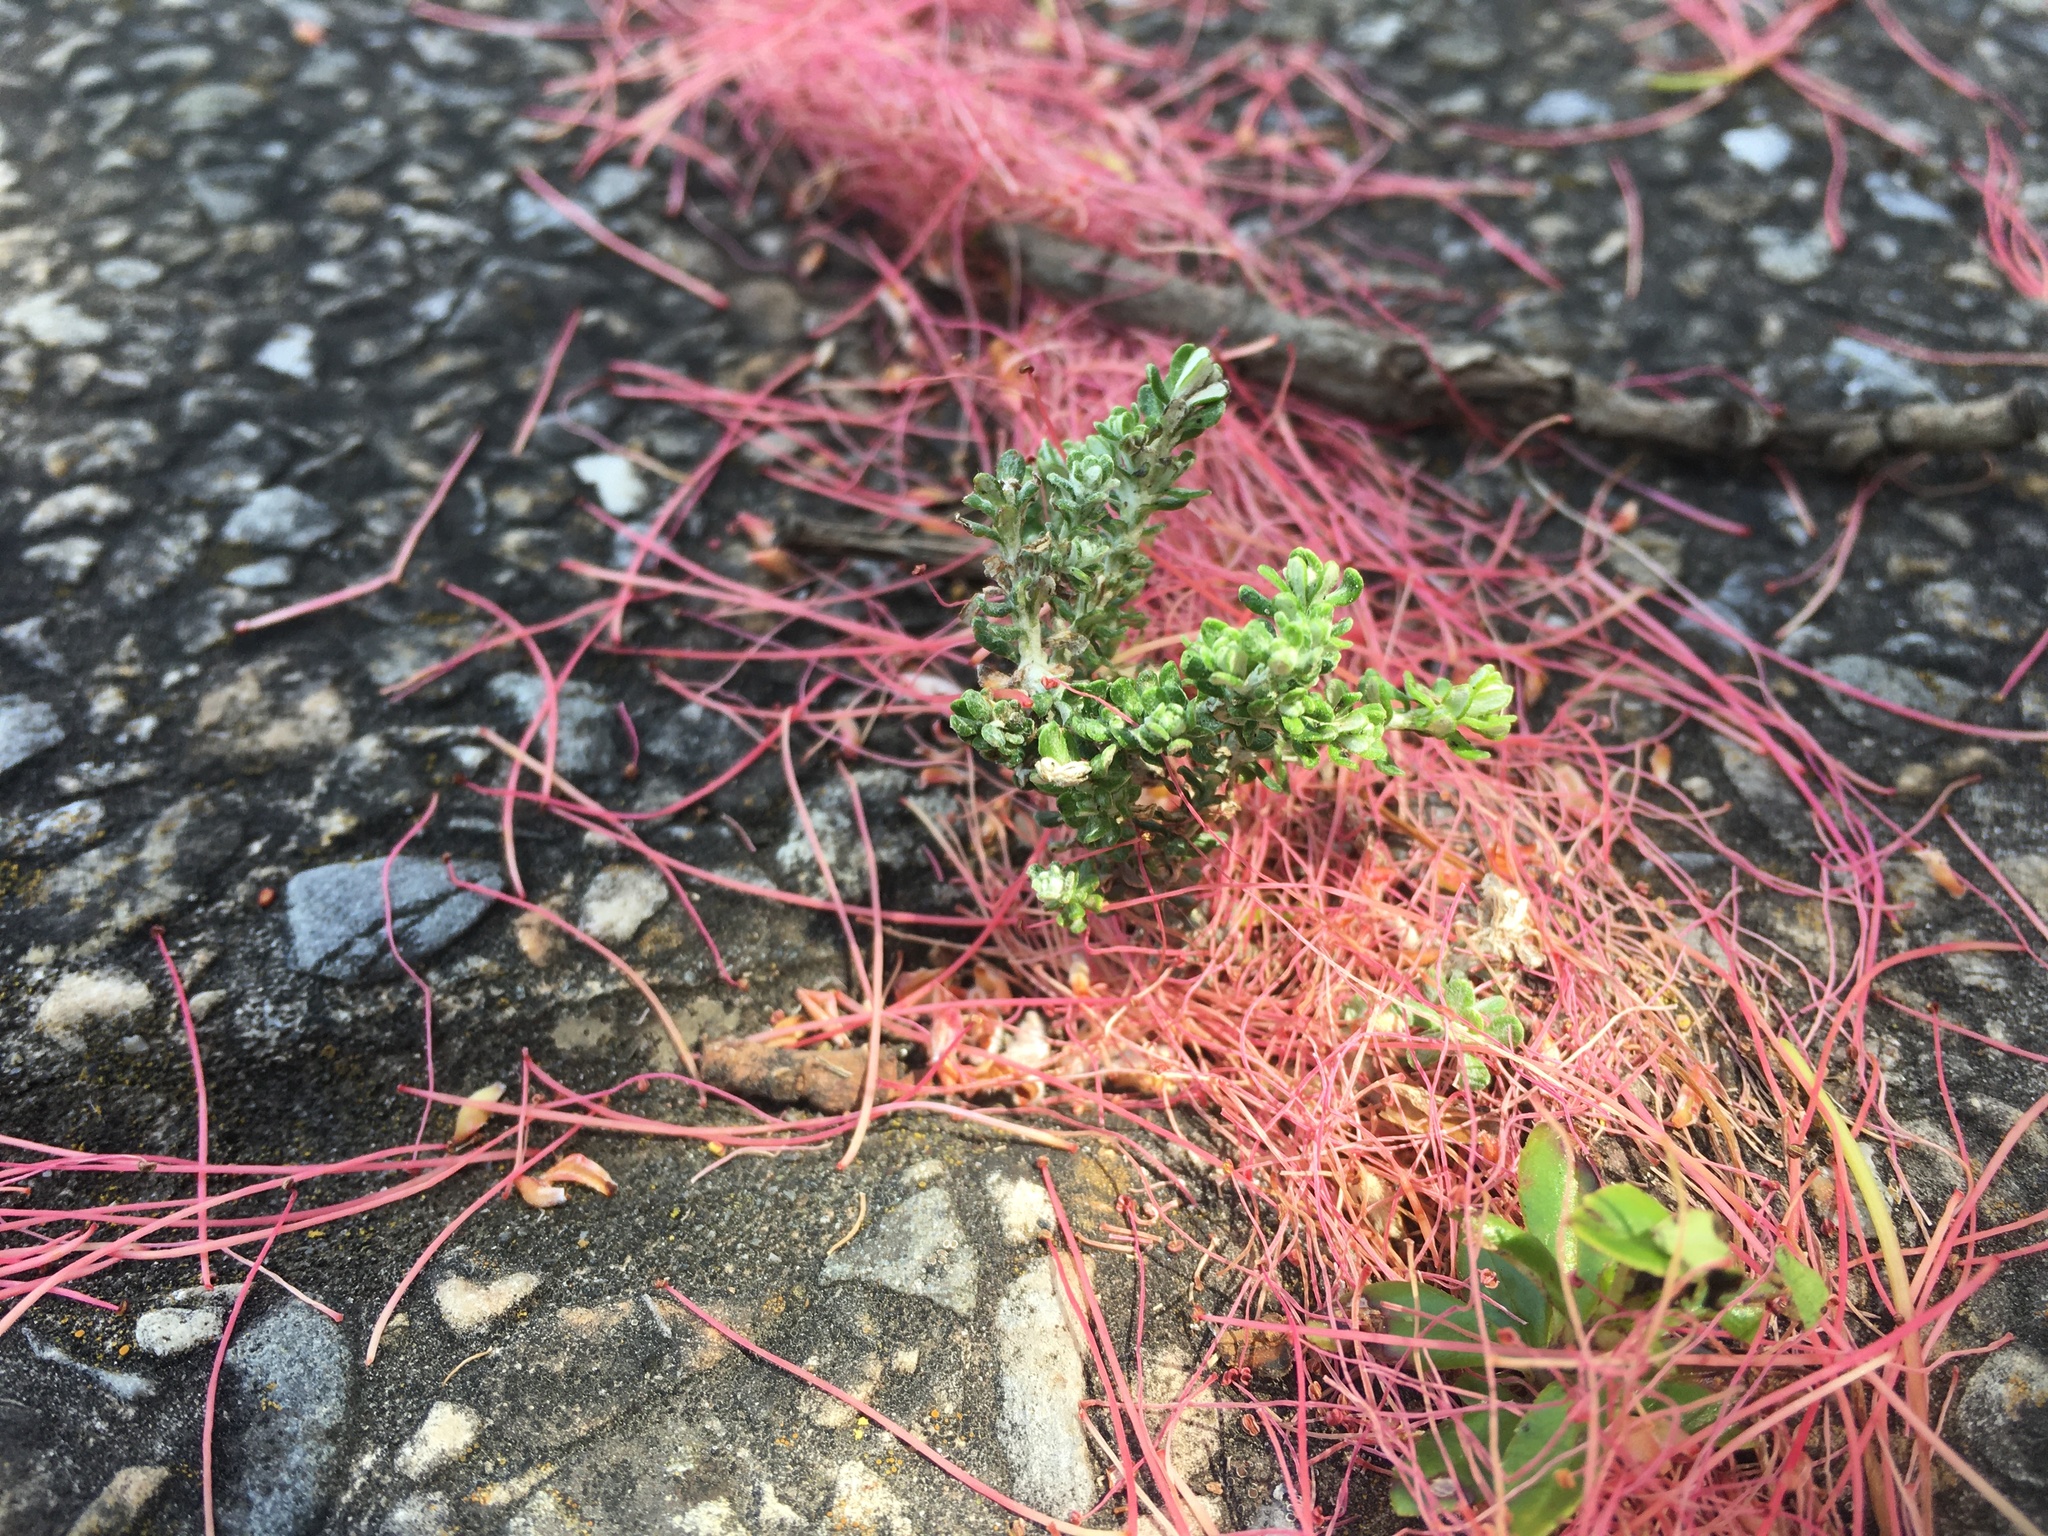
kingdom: Plantae
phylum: Tracheophyta
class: Magnoliopsida
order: Asterales
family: Asteraceae
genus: Ozothamnus
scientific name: Ozothamnus leptophyllus
